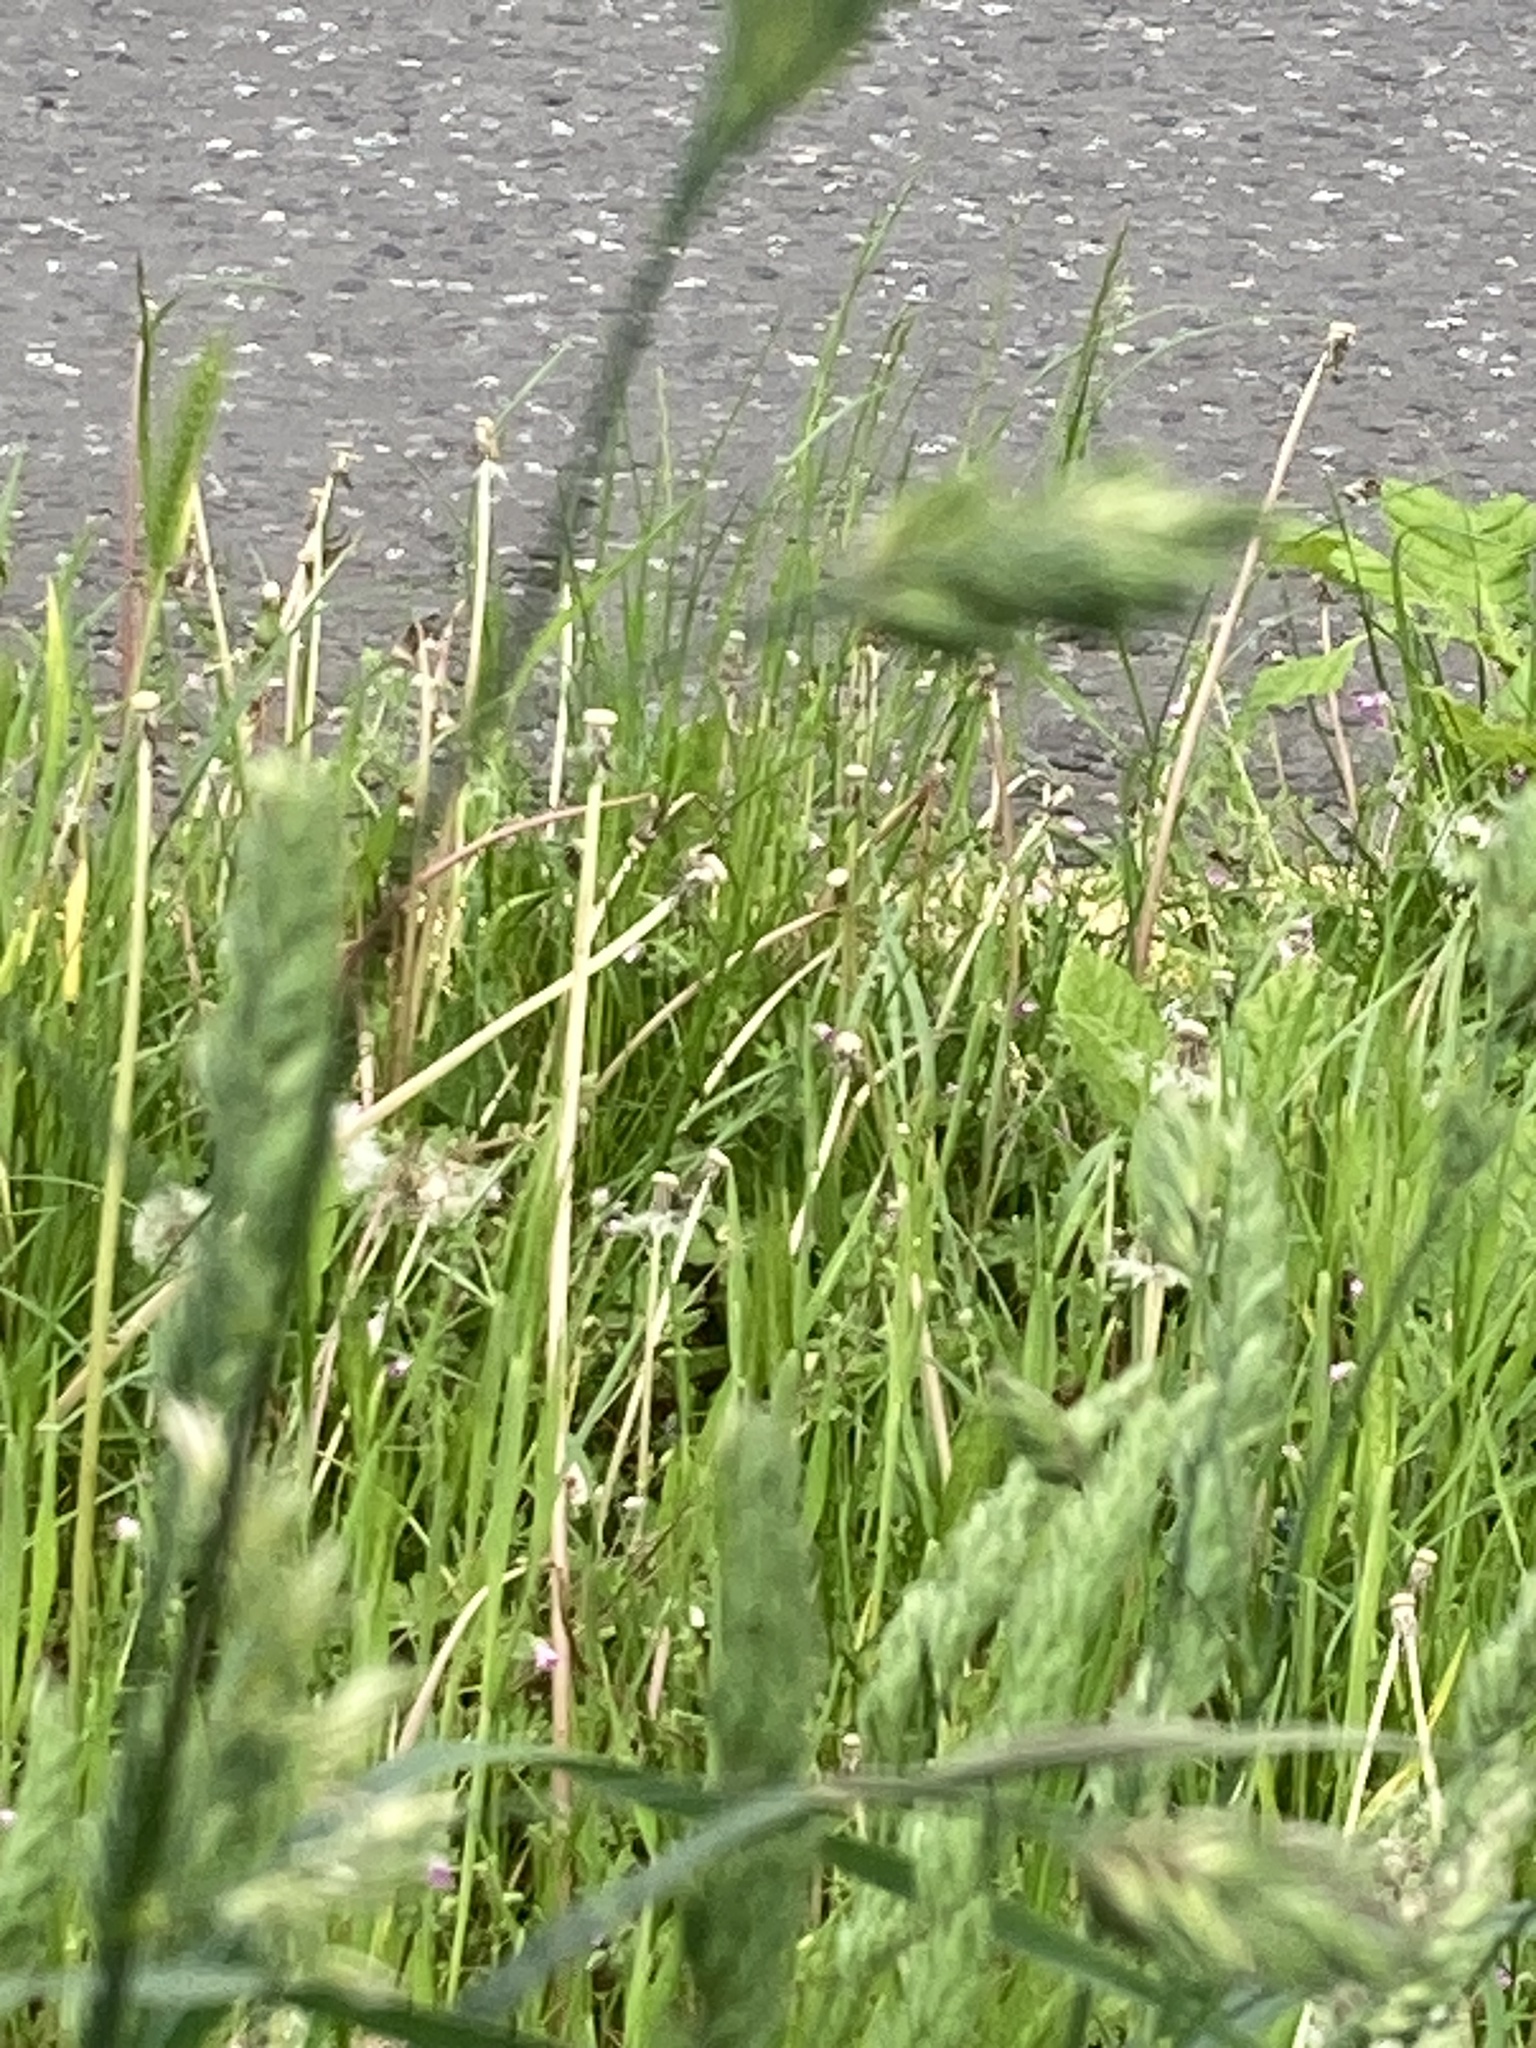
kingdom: Plantae
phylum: Tracheophyta
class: Liliopsida
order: Poales
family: Poaceae
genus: Dactylis
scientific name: Dactylis glomerata
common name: Orchardgrass
